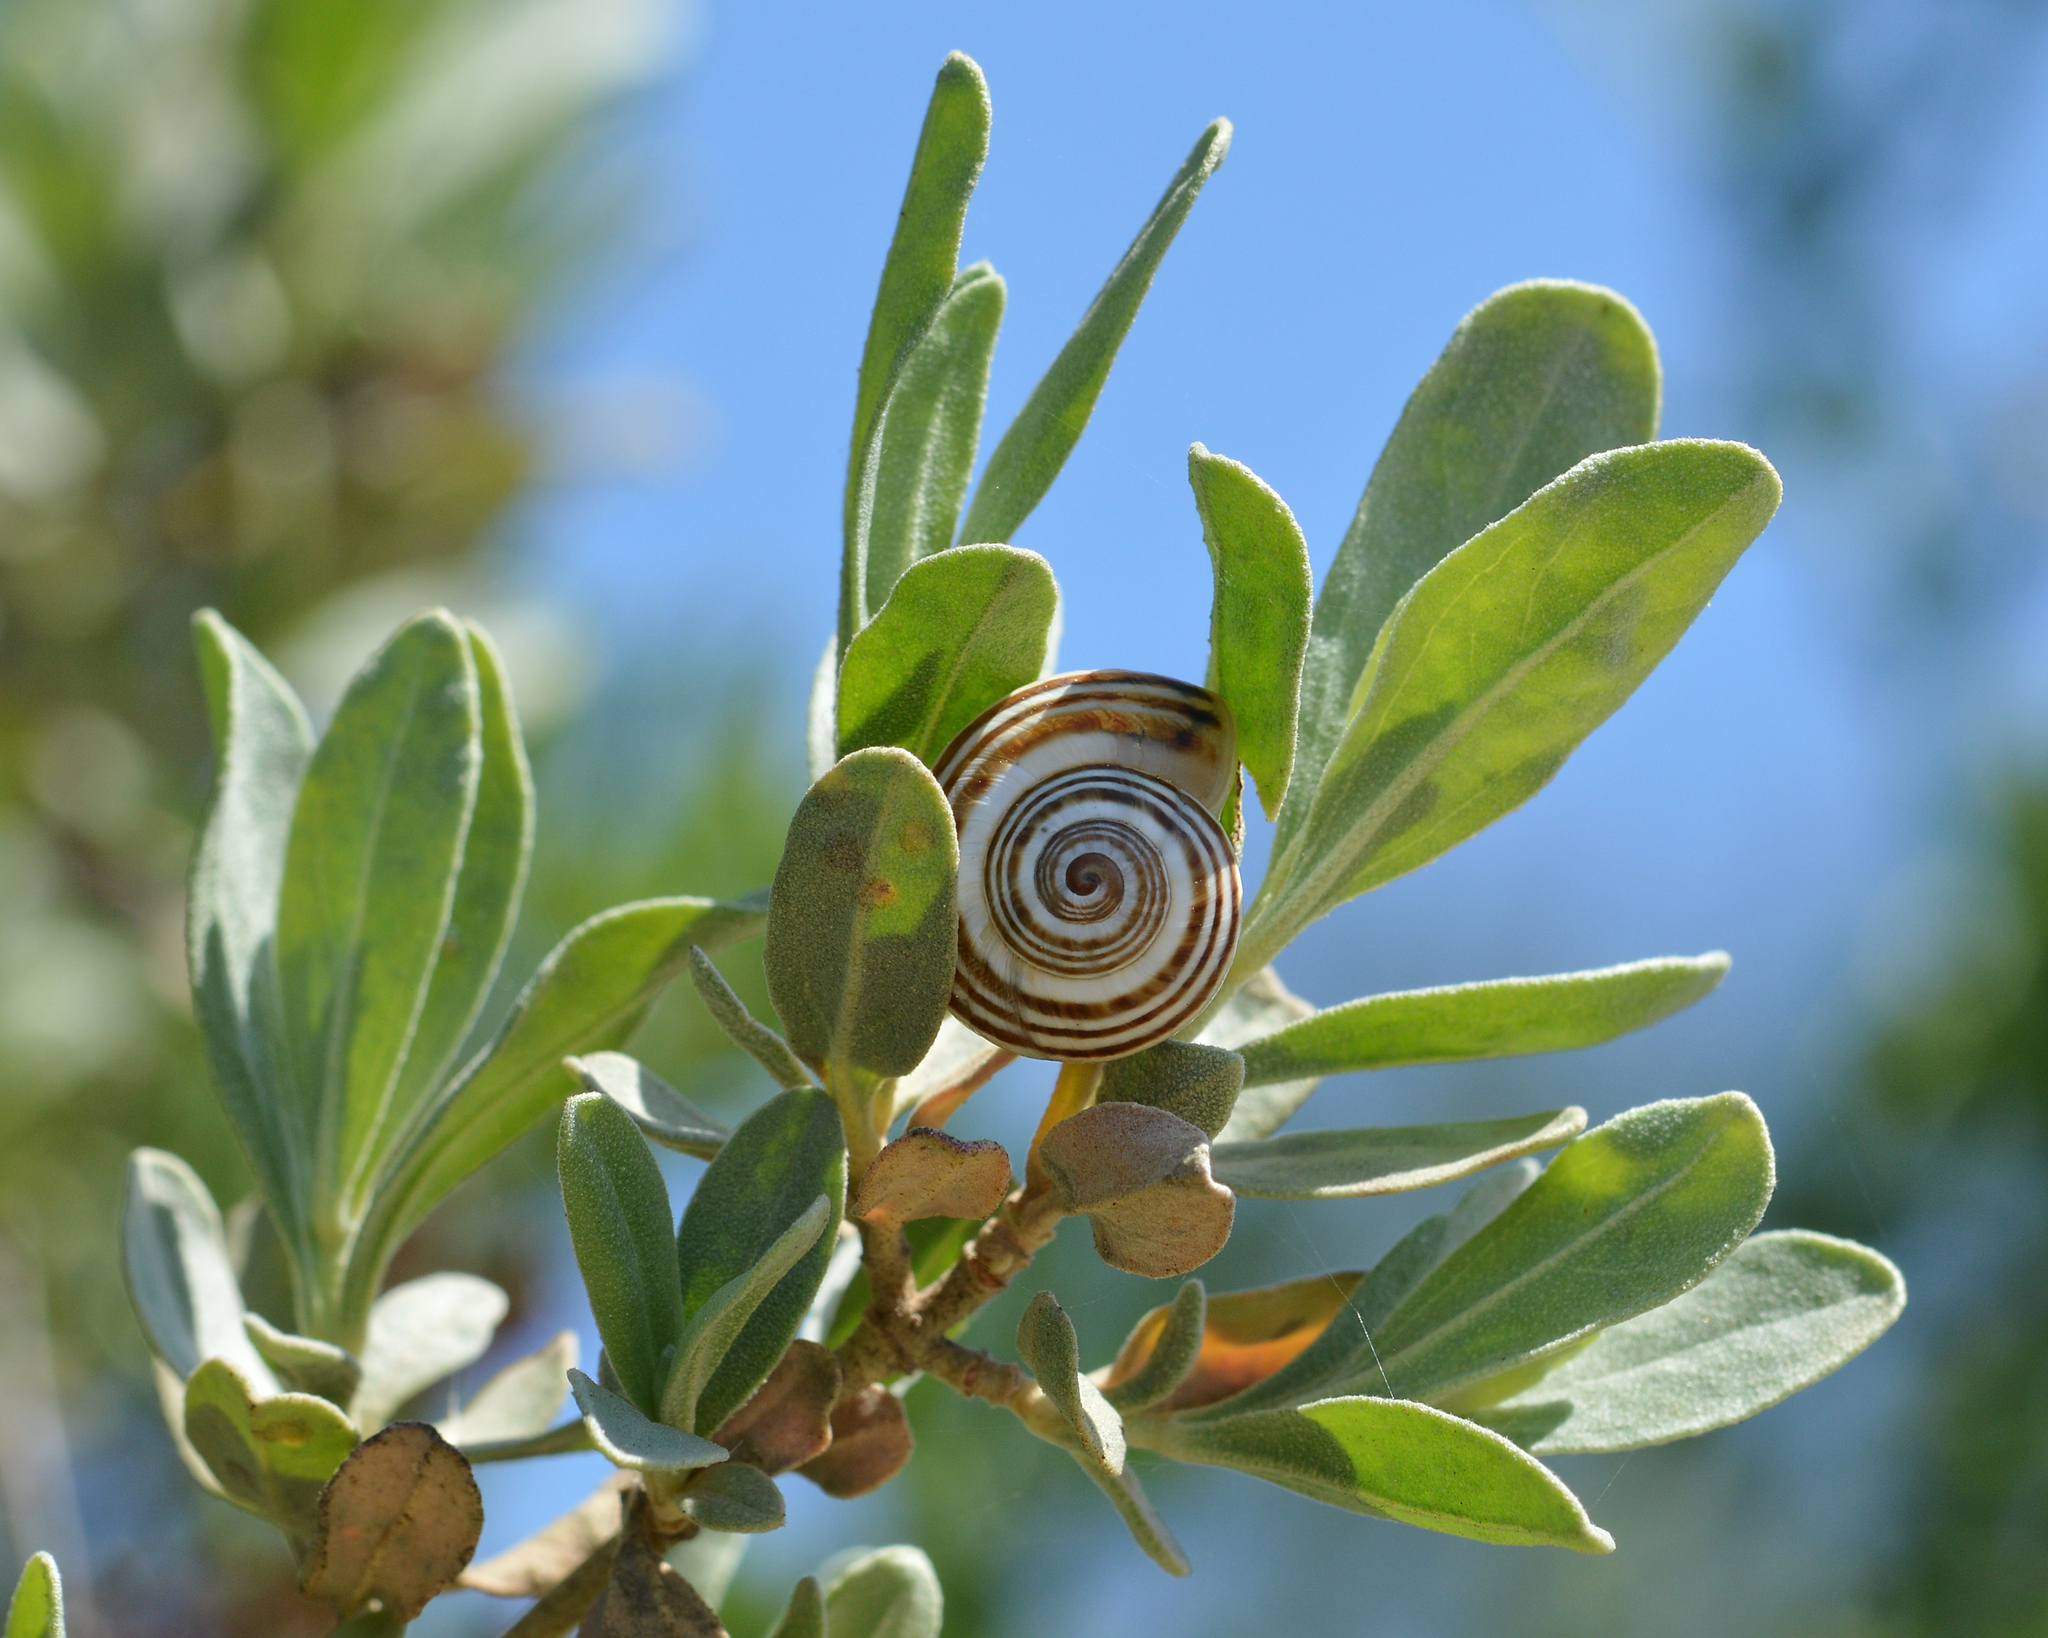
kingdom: Plantae
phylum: Tracheophyta
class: Magnoliopsida
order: Malvales
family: Cistaceae
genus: Halimium
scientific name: Halimium halimifolium
